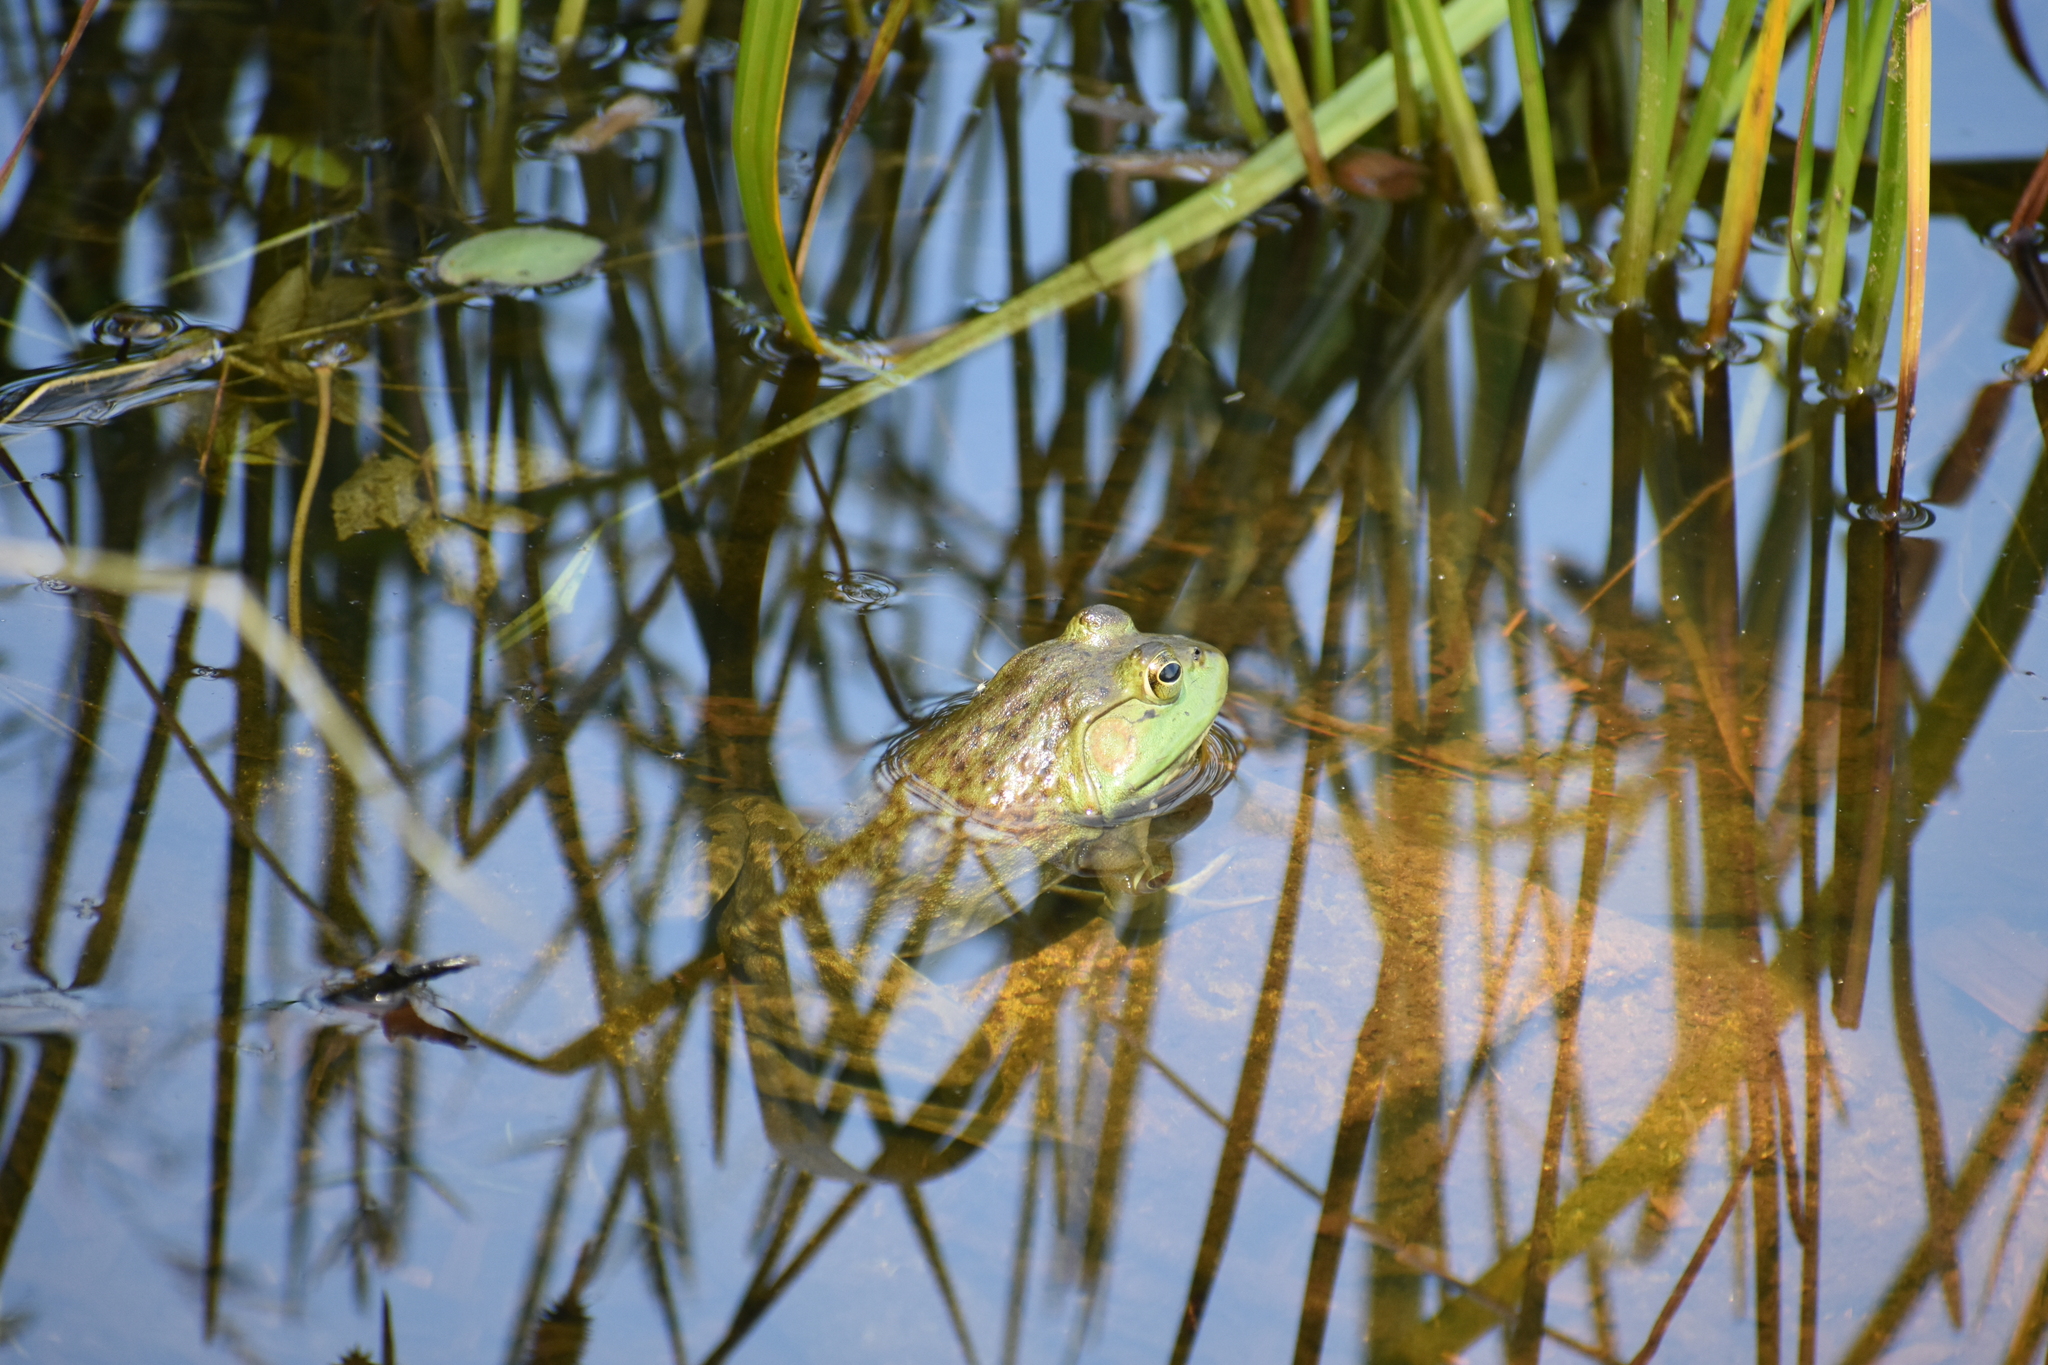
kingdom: Animalia
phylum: Chordata
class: Amphibia
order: Anura
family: Ranidae
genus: Lithobates
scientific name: Lithobates catesbeianus
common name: American bullfrog
